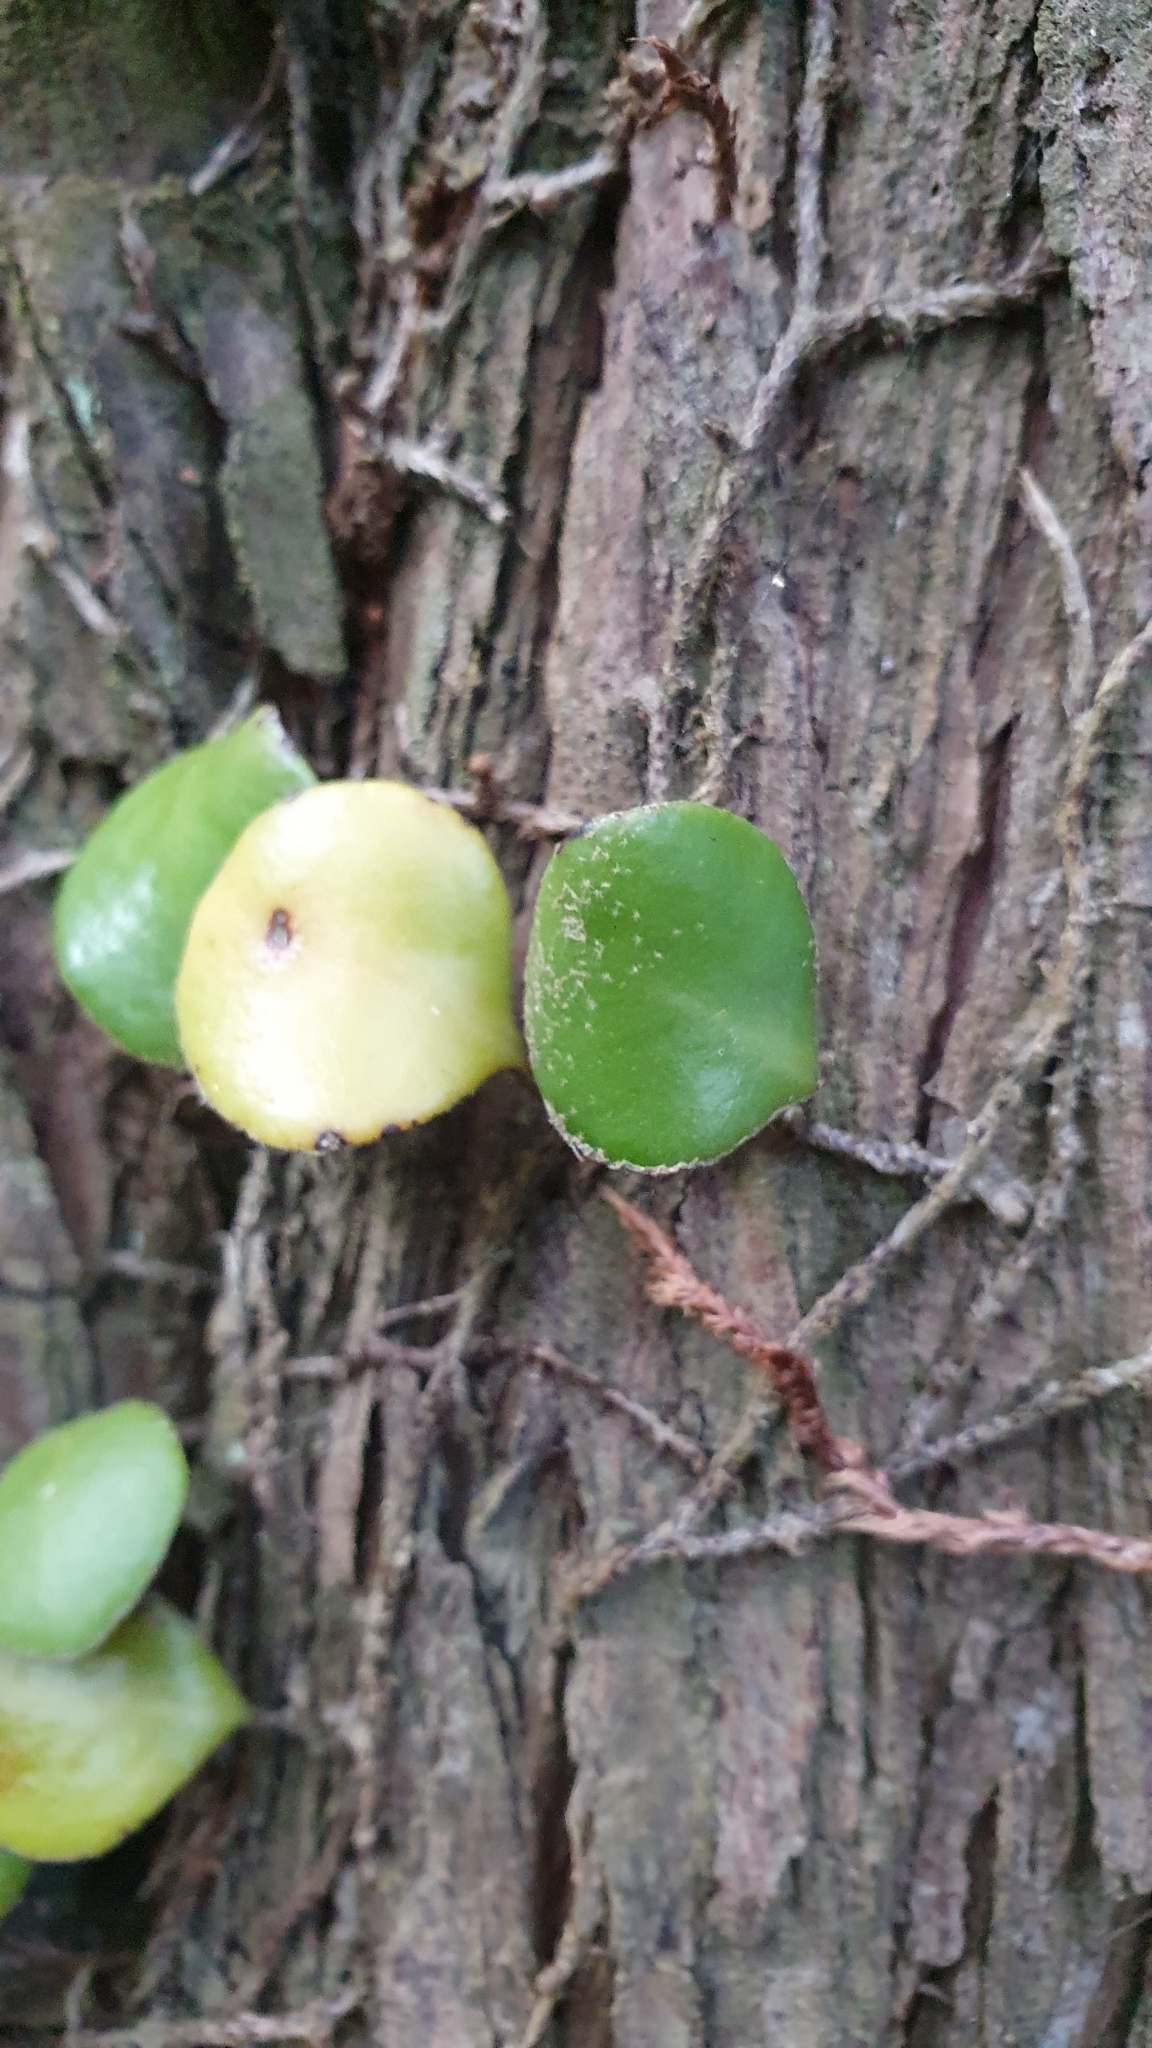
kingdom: Plantae
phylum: Tracheophyta
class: Polypodiopsida
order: Polypodiales
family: Polypodiaceae
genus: Pyrrosia
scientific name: Pyrrosia eleagnifolia
